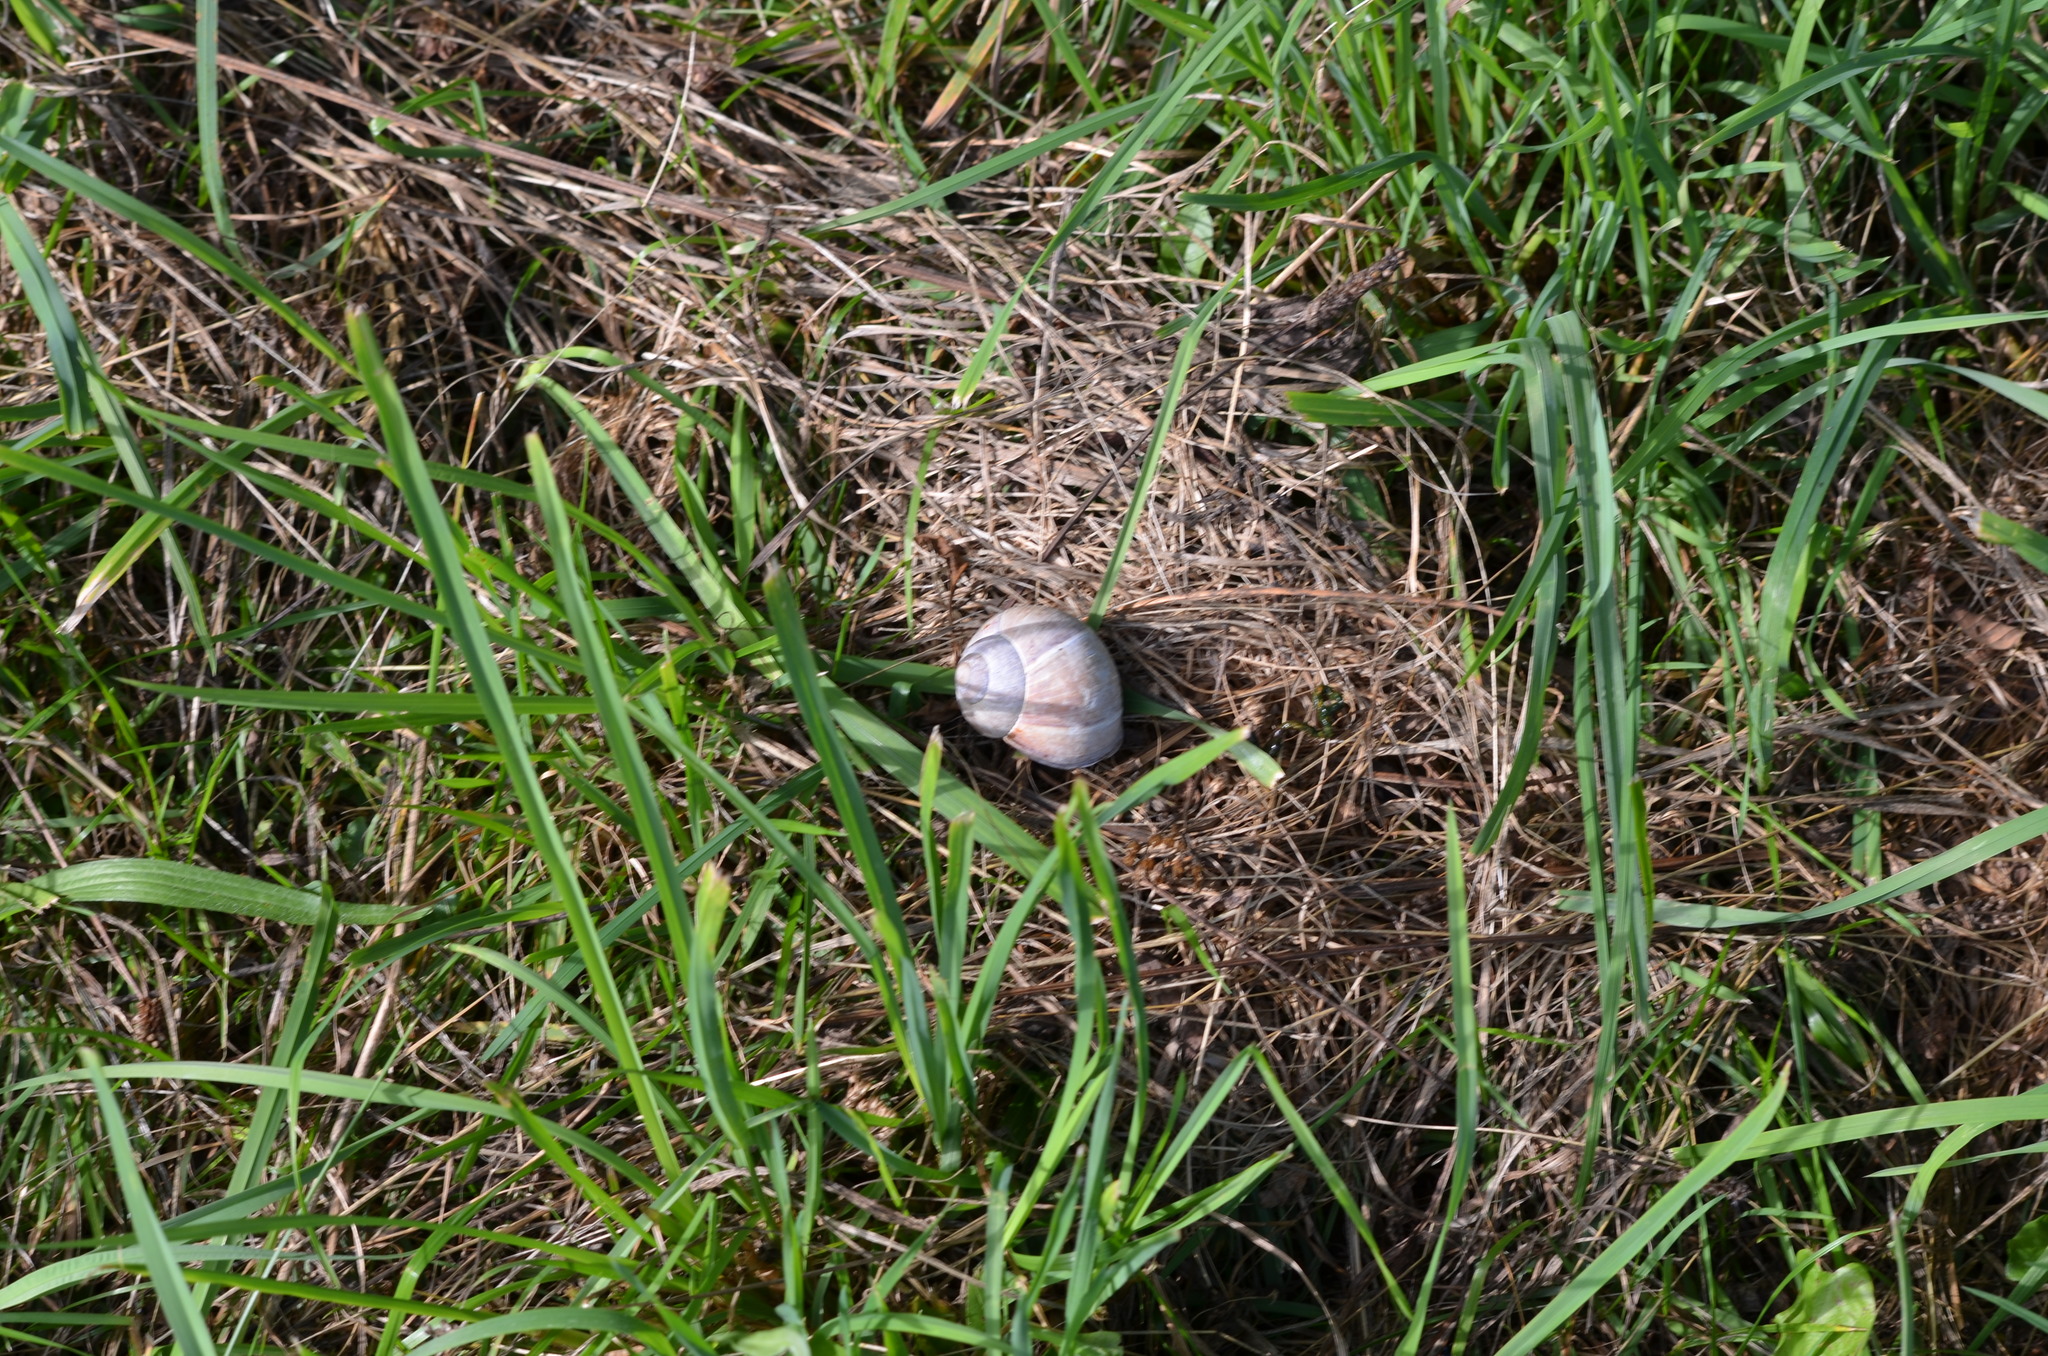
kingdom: Animalia
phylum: Mollusca
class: Gastropoda
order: Stylommatophora
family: Helicidae
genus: Helix
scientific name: Helix pomatia
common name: Roman snail
